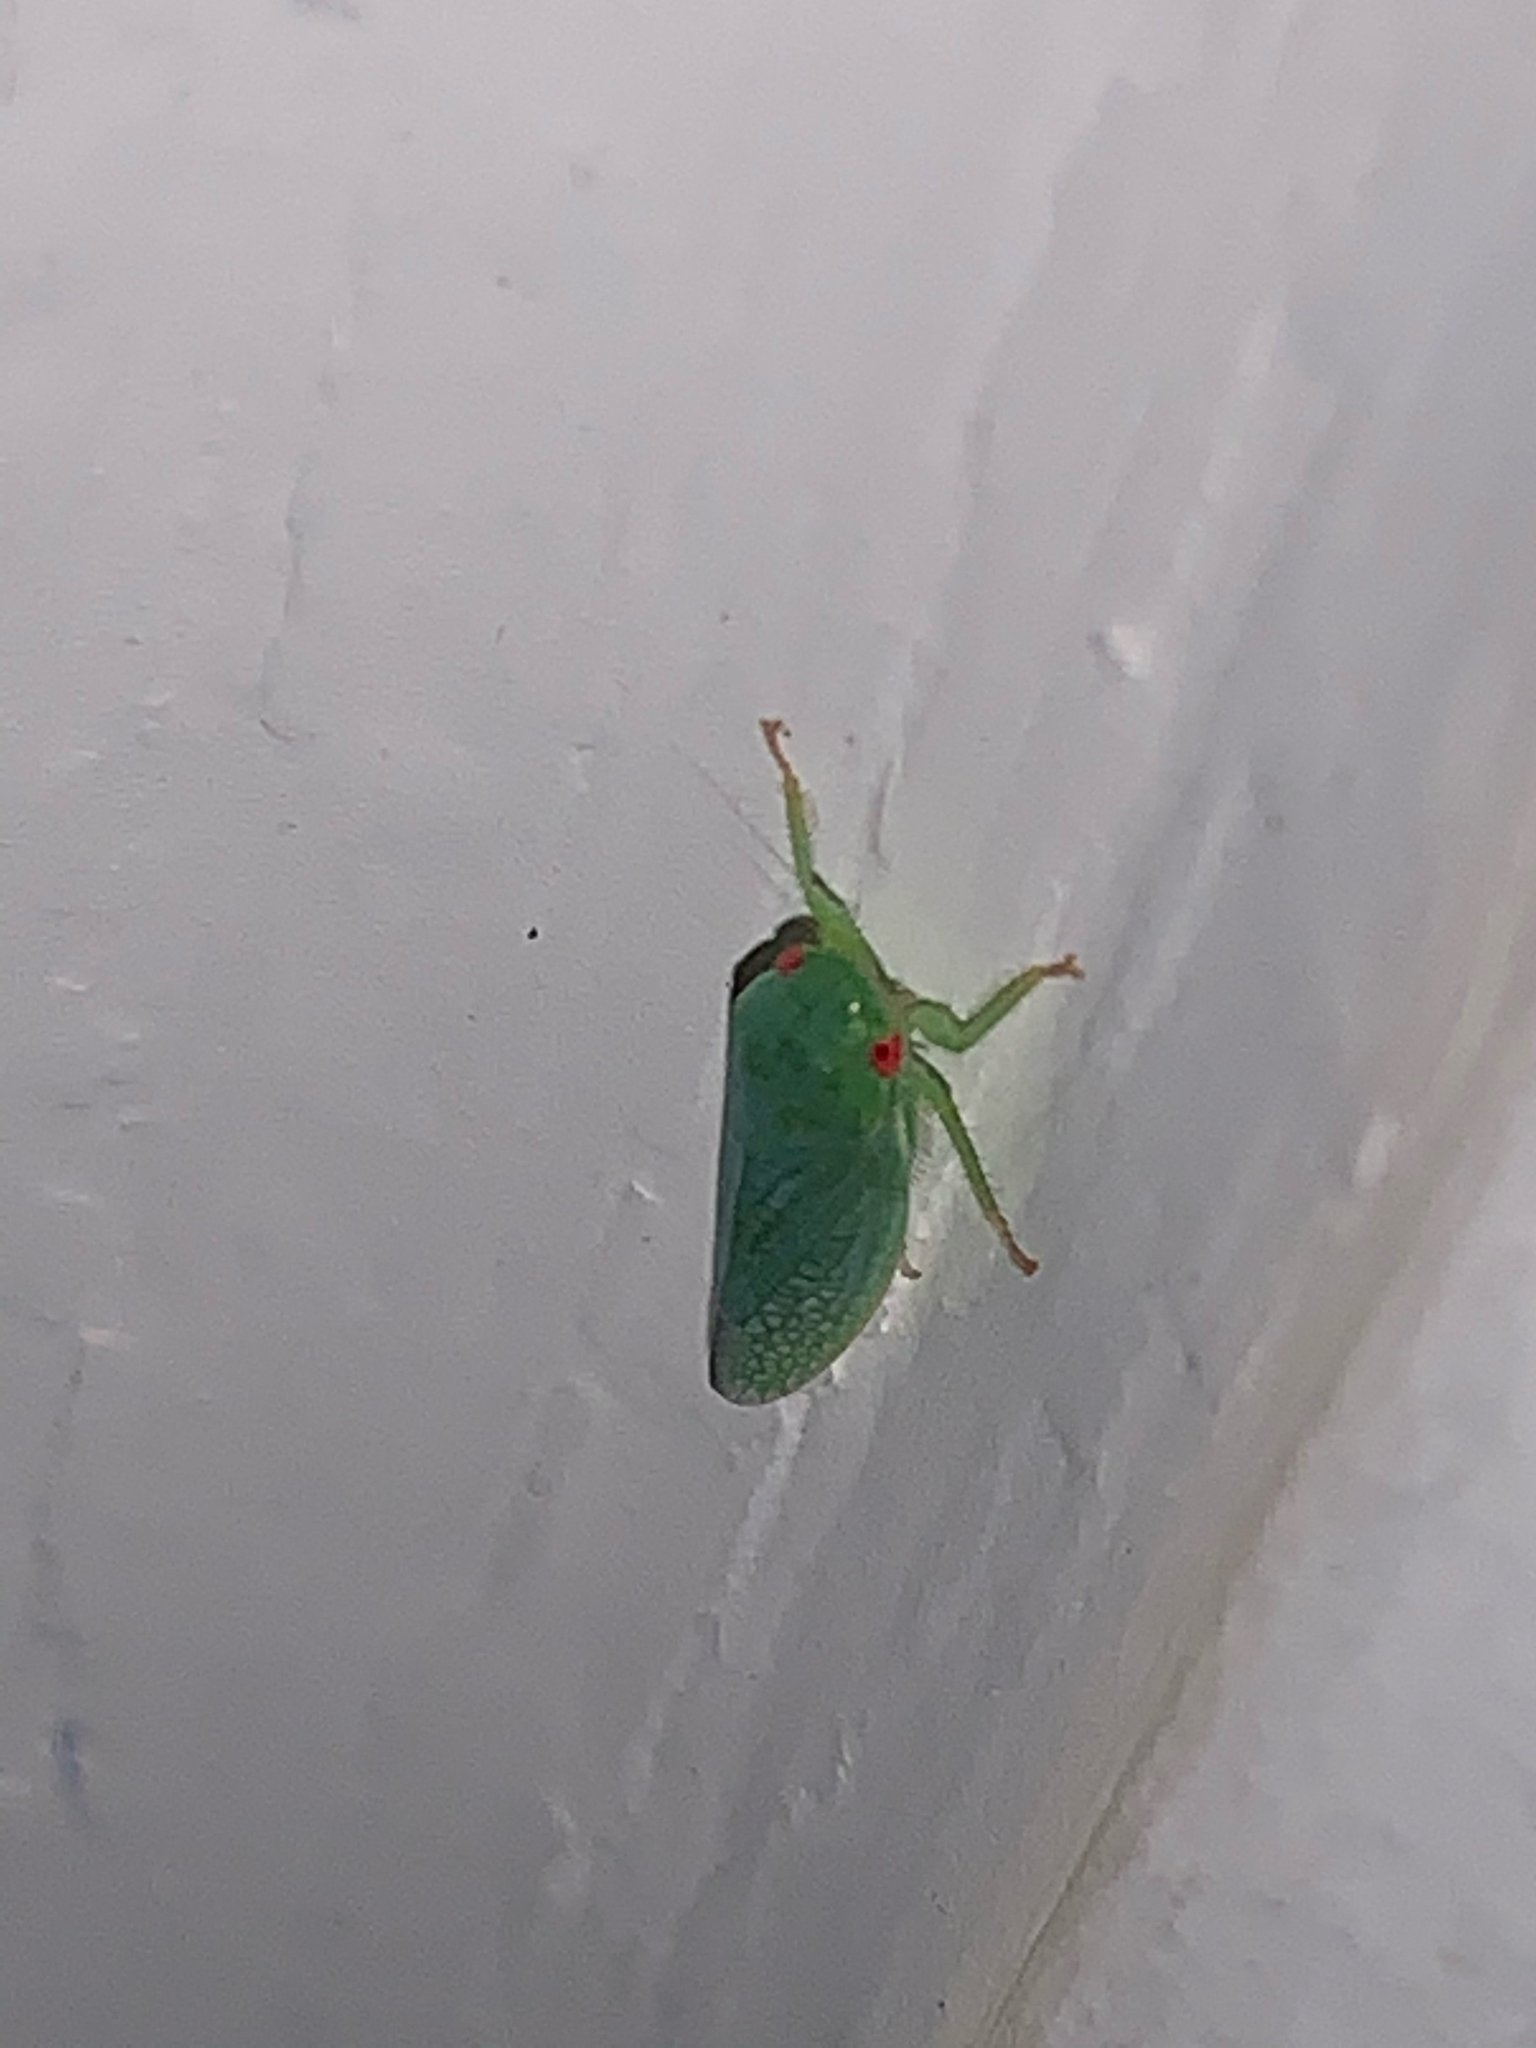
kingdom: Animalia
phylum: Arthropoda
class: Insecta
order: Hemiptera
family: Cicadellidae
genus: Gyponana
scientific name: Gyponana
